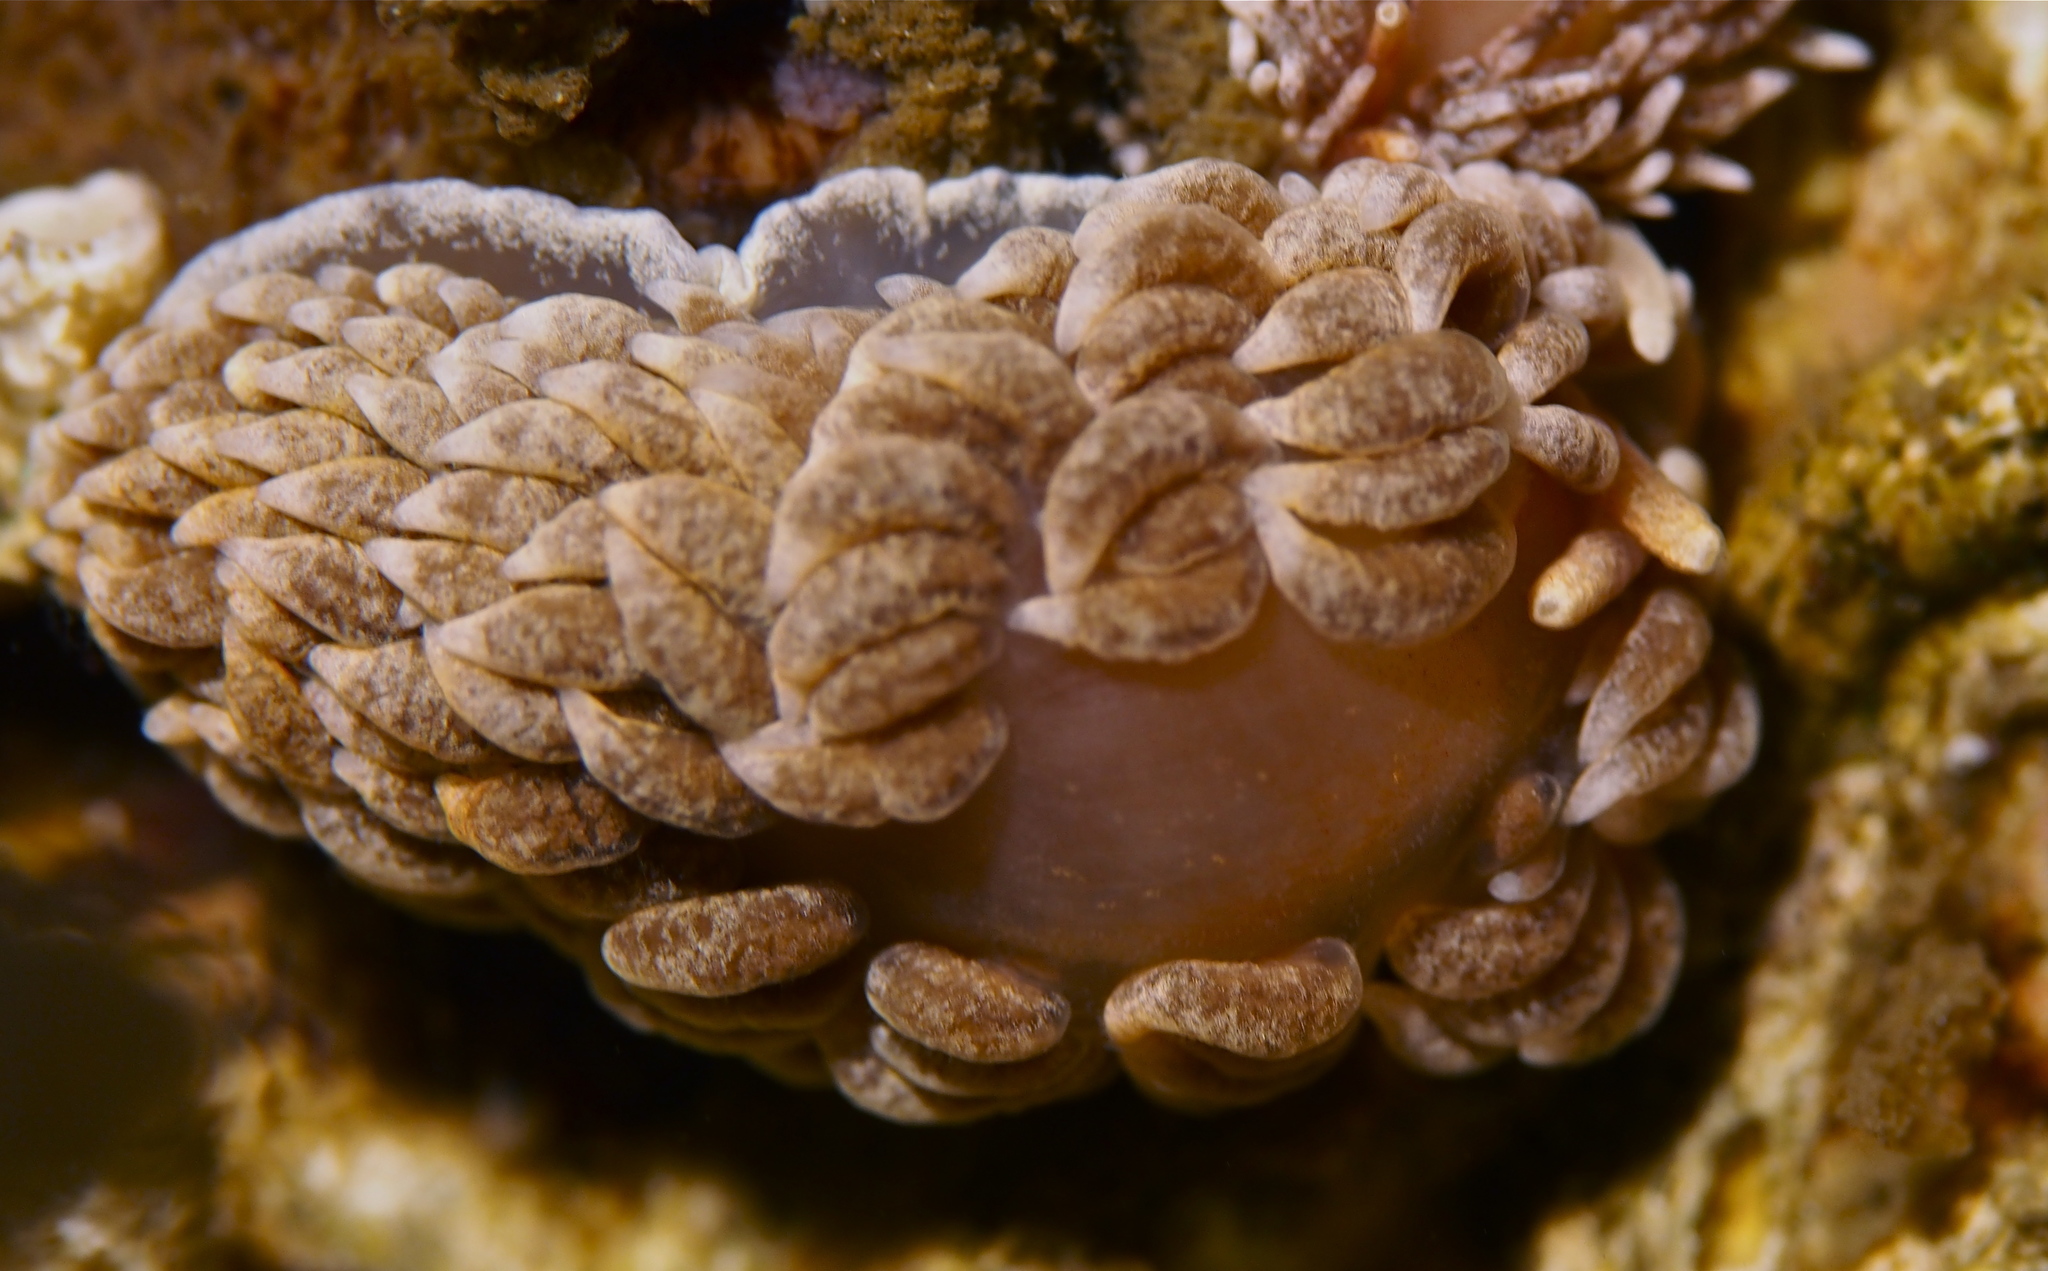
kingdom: Animalia
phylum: Mollusca
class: Gastropoda
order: Nudibranchia
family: Aeolidiidae
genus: Aeolidiella
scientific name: Aeolidiella glauca
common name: Orange-brown aeolid
